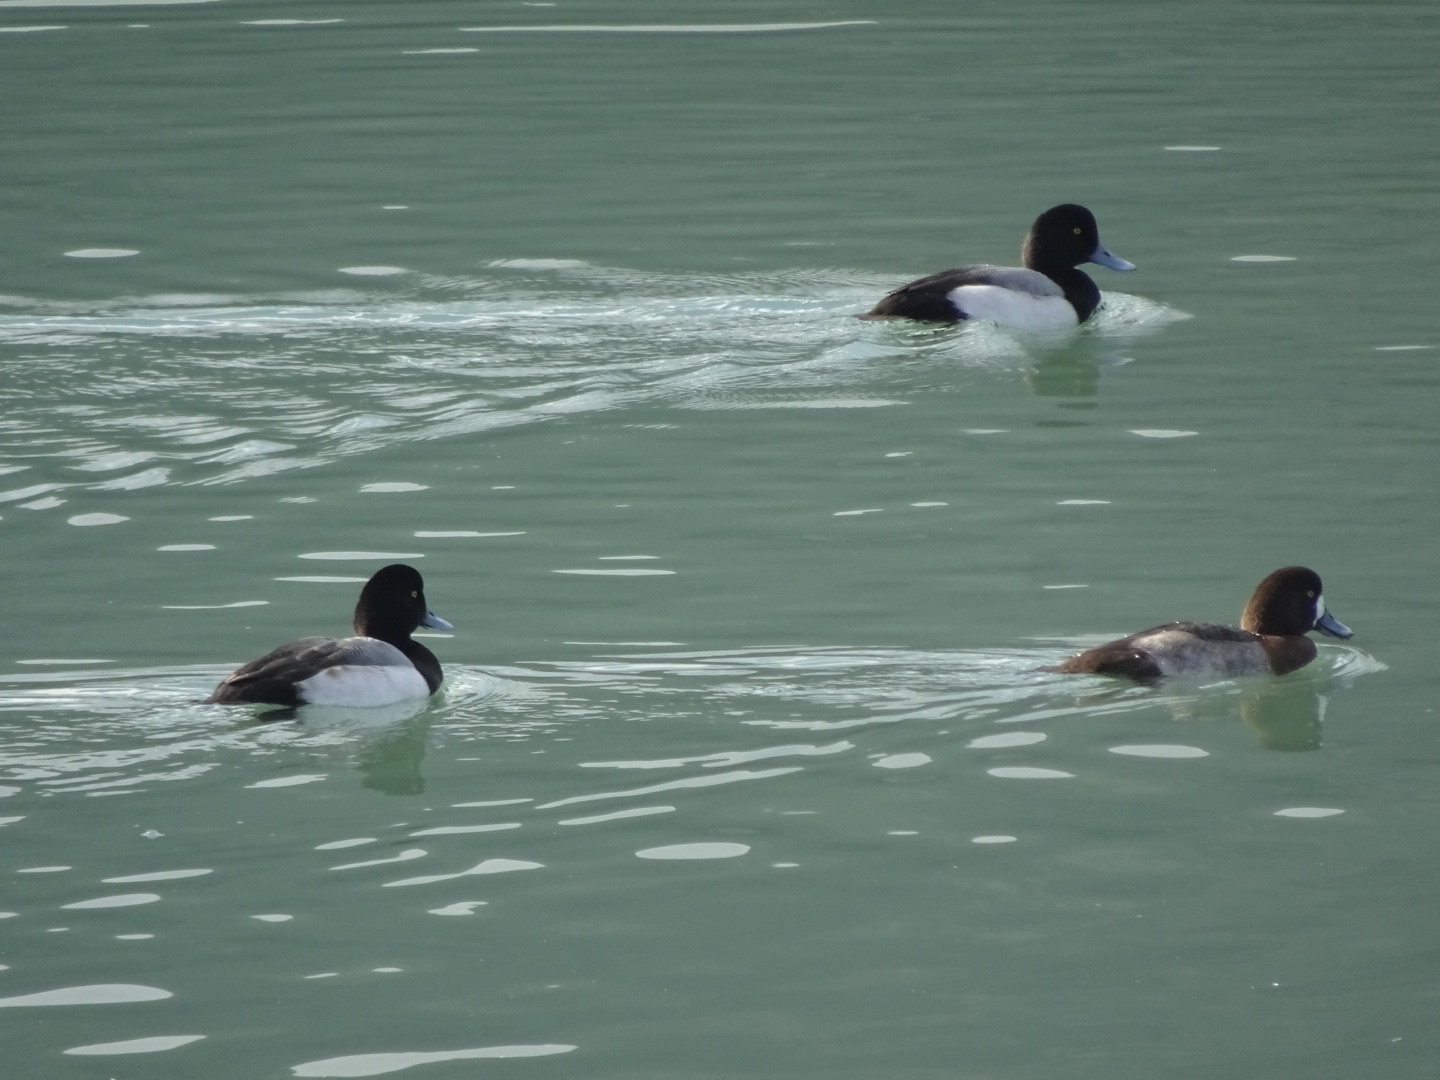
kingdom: Animalia
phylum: Chordata
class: Aves
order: Anseriformes
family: Anatidae
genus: Aythya
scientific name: Aythya marila
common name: Greater scaup
